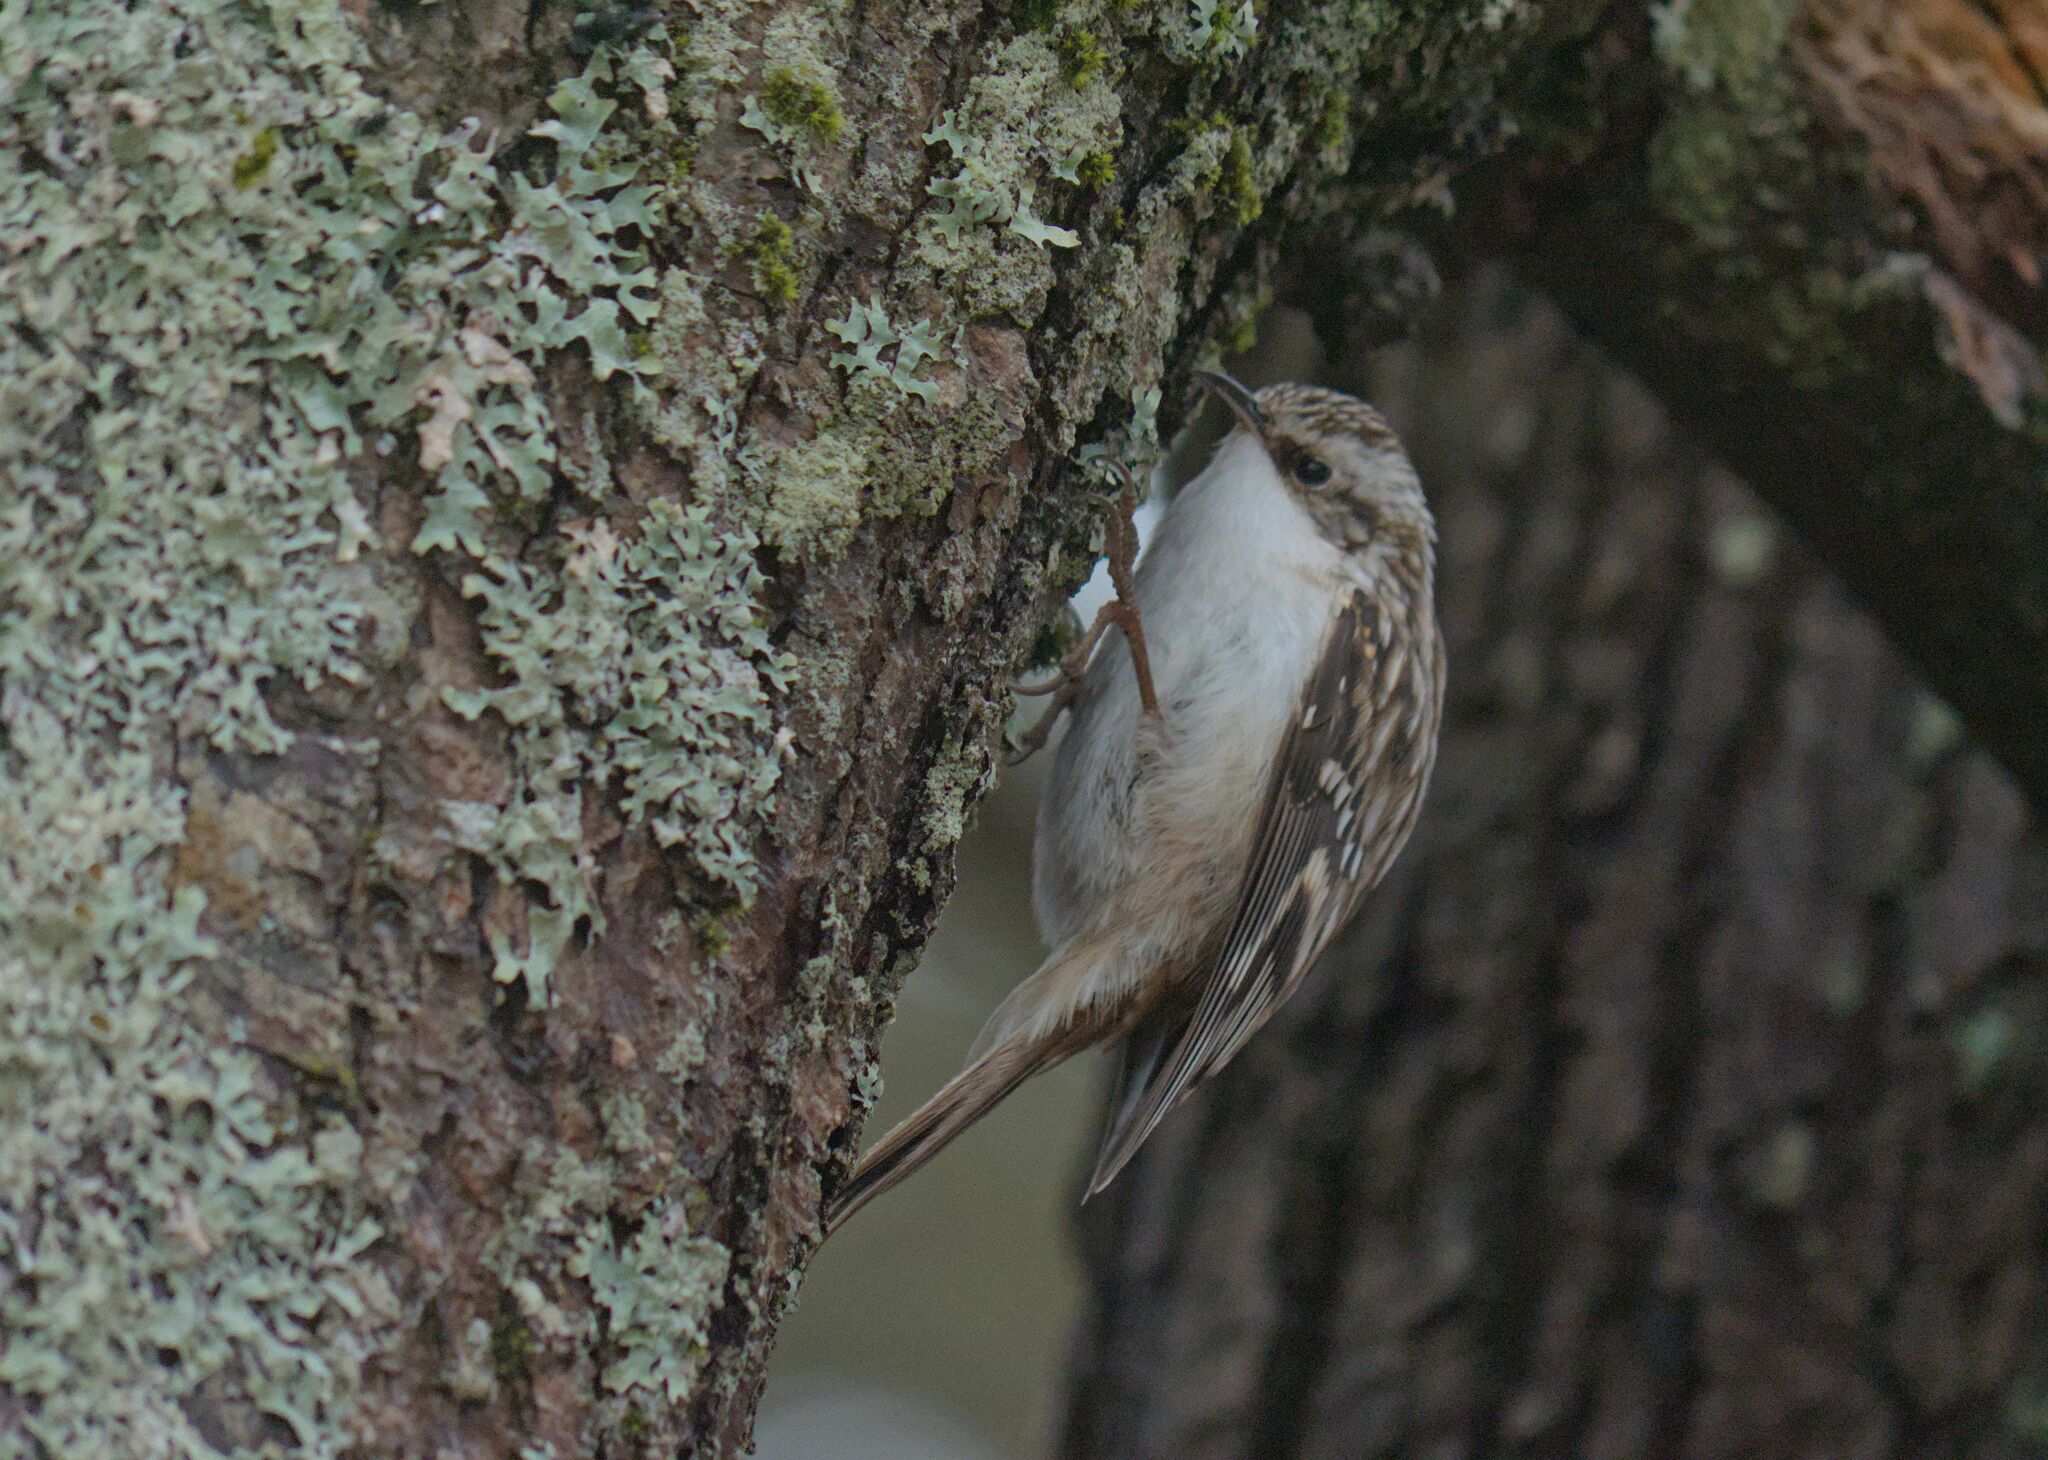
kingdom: Animalia
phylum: Chordata
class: Aves
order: Passeriformes
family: Certhiidae
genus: Certhia
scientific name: Certhia americana
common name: Brown creeper
